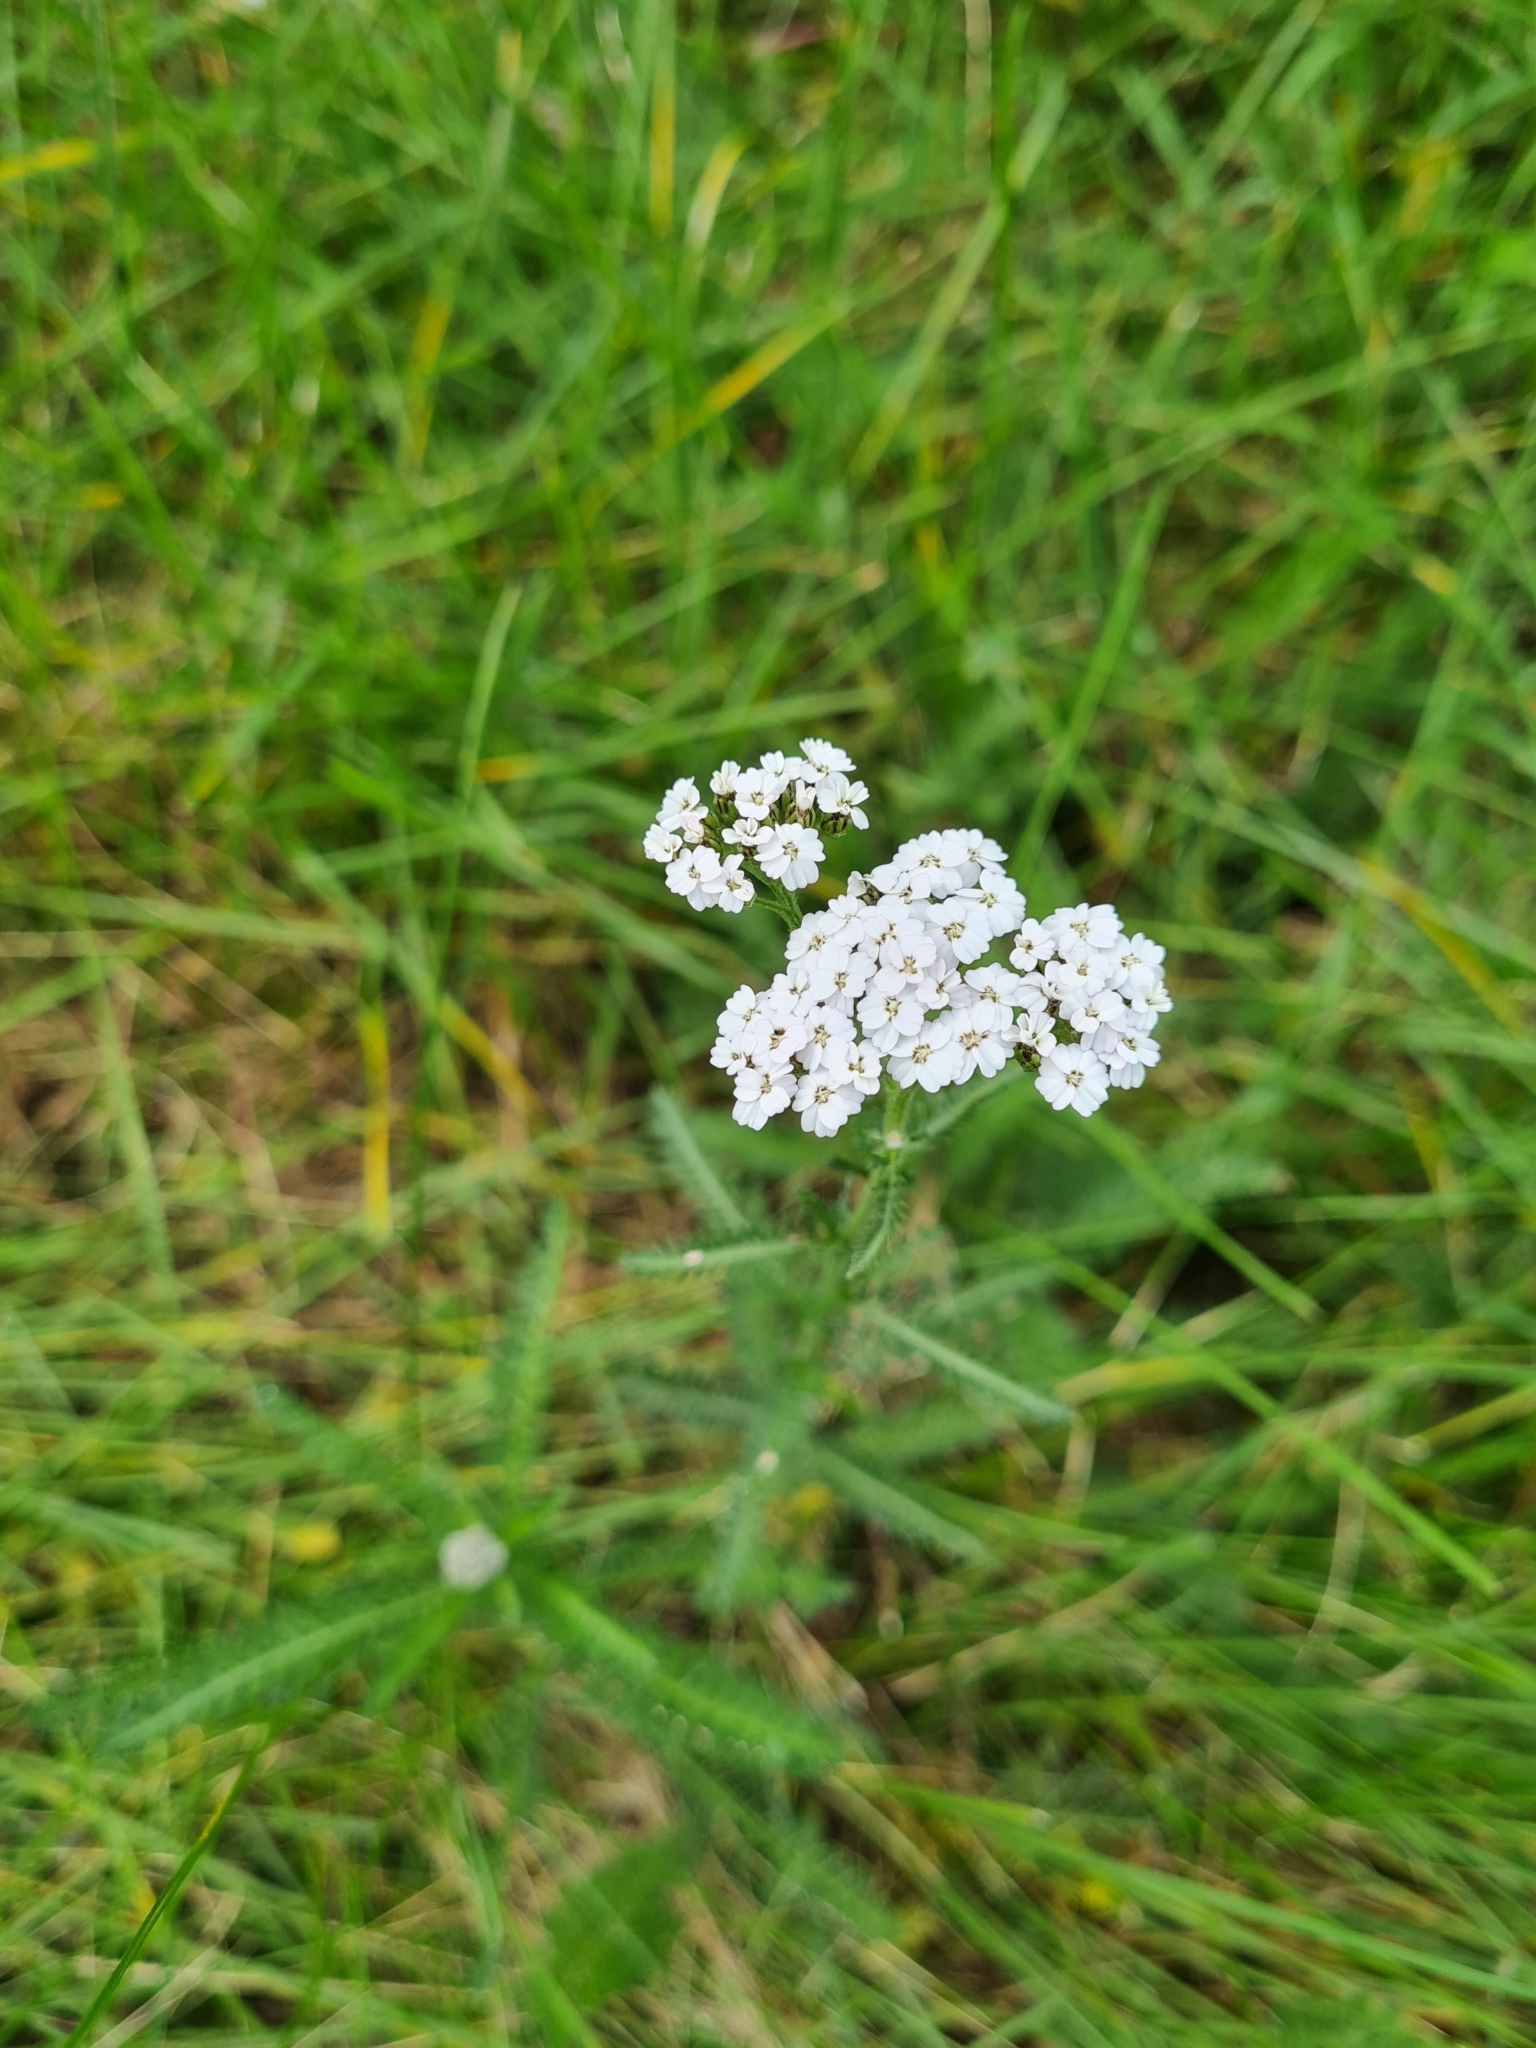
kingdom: Plantae
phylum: Tracheophyta
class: Magnoliopsida
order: Asterales
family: Asteraceae
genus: Achillea
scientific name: Achillea millefolium
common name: Yarrow
